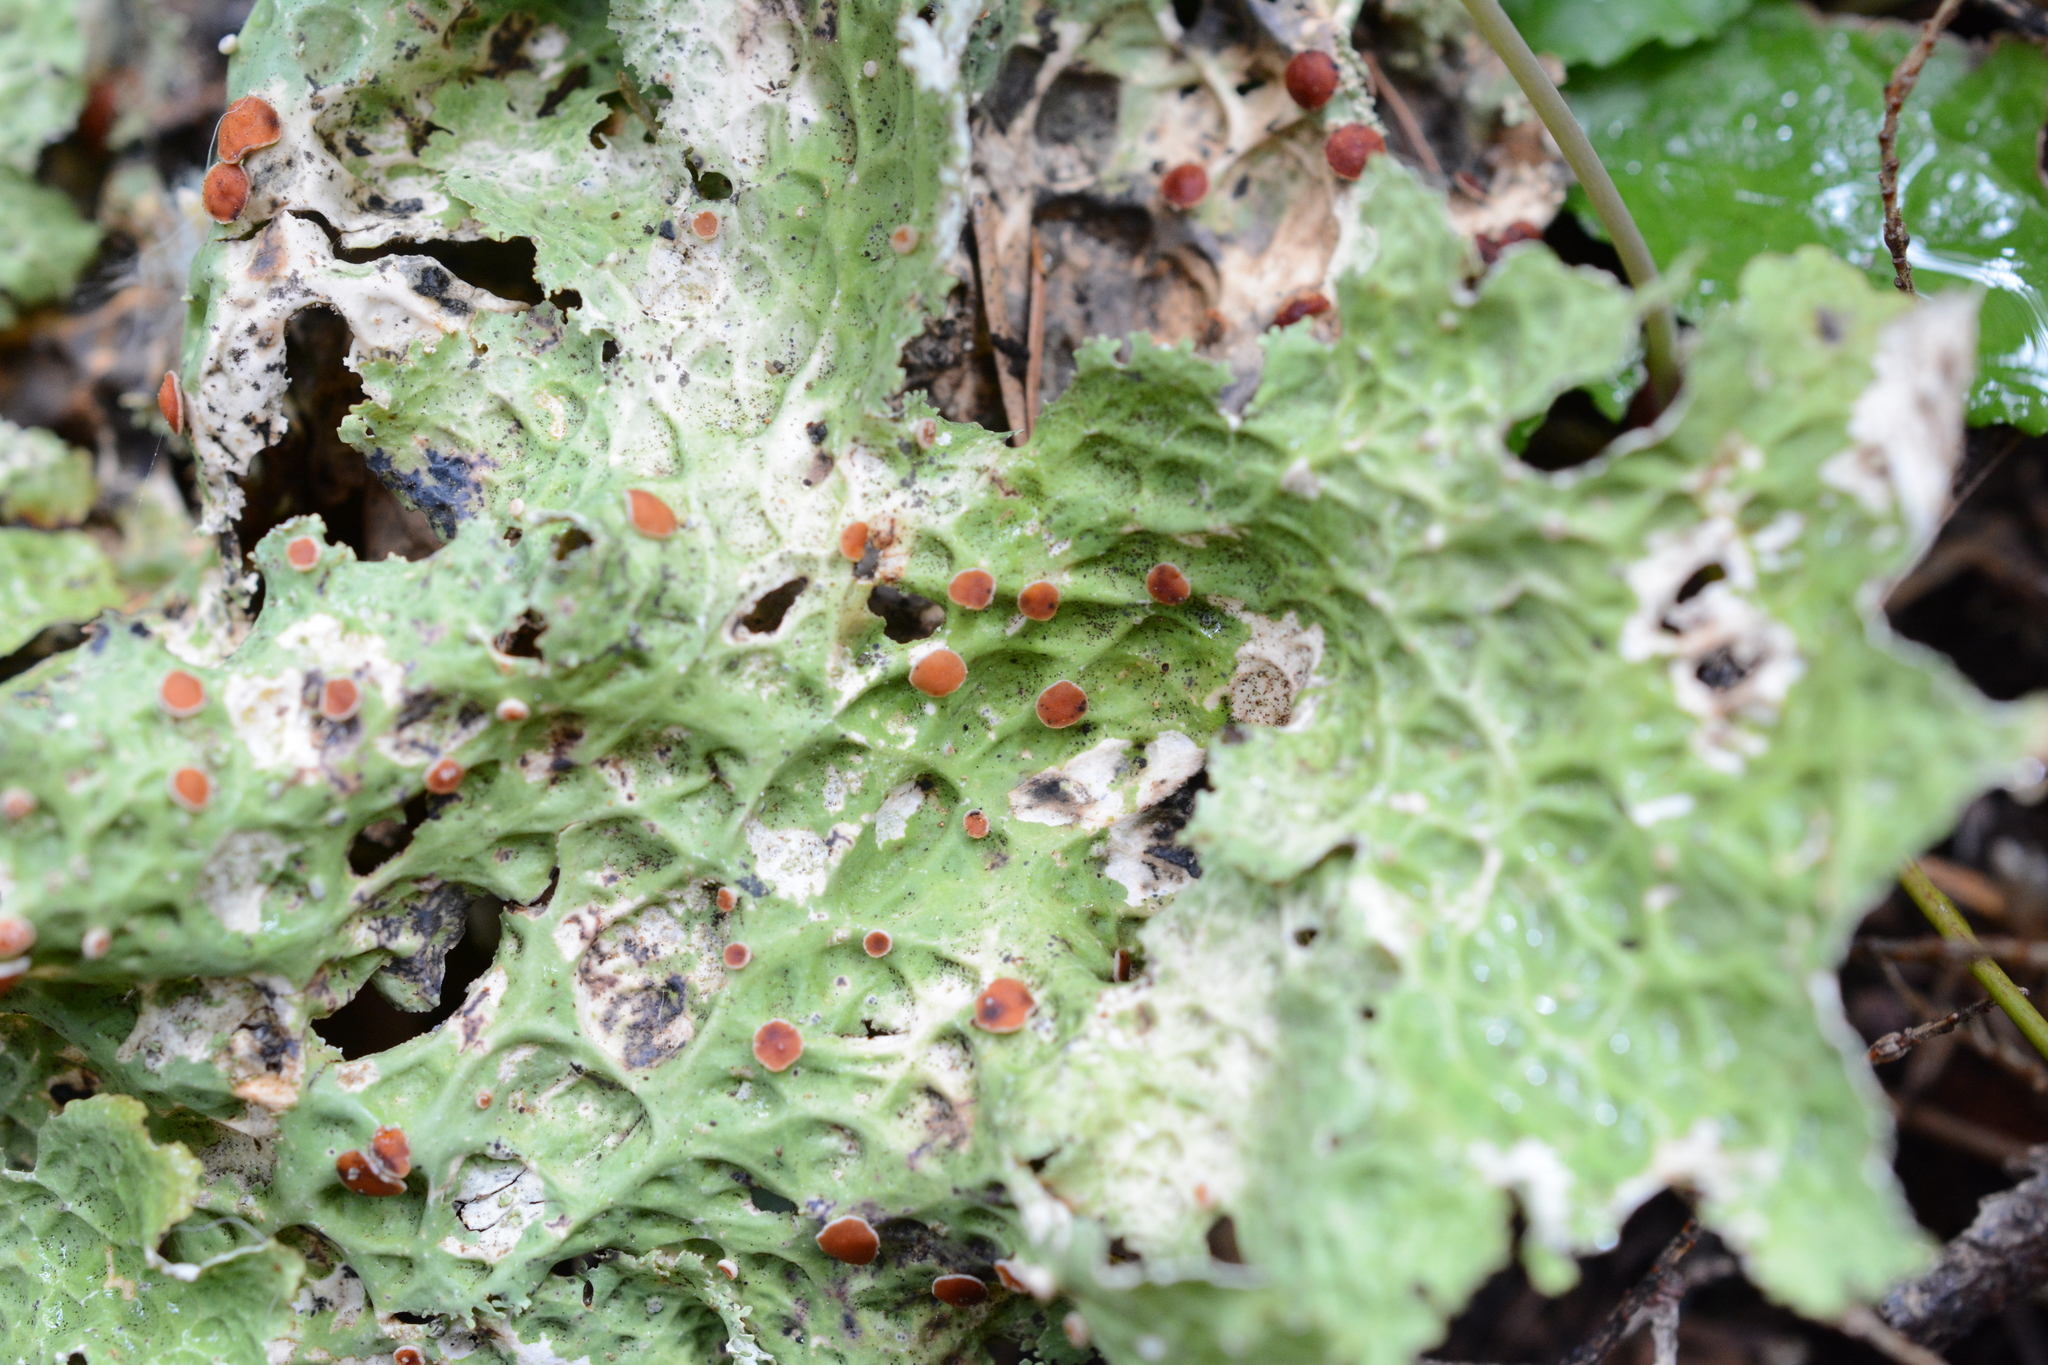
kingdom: Fungi
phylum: Ascomycota
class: Lecanoromycetes
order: Peltigerales
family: Lobariaceae
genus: Lobaria
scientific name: Lobaria oregana
